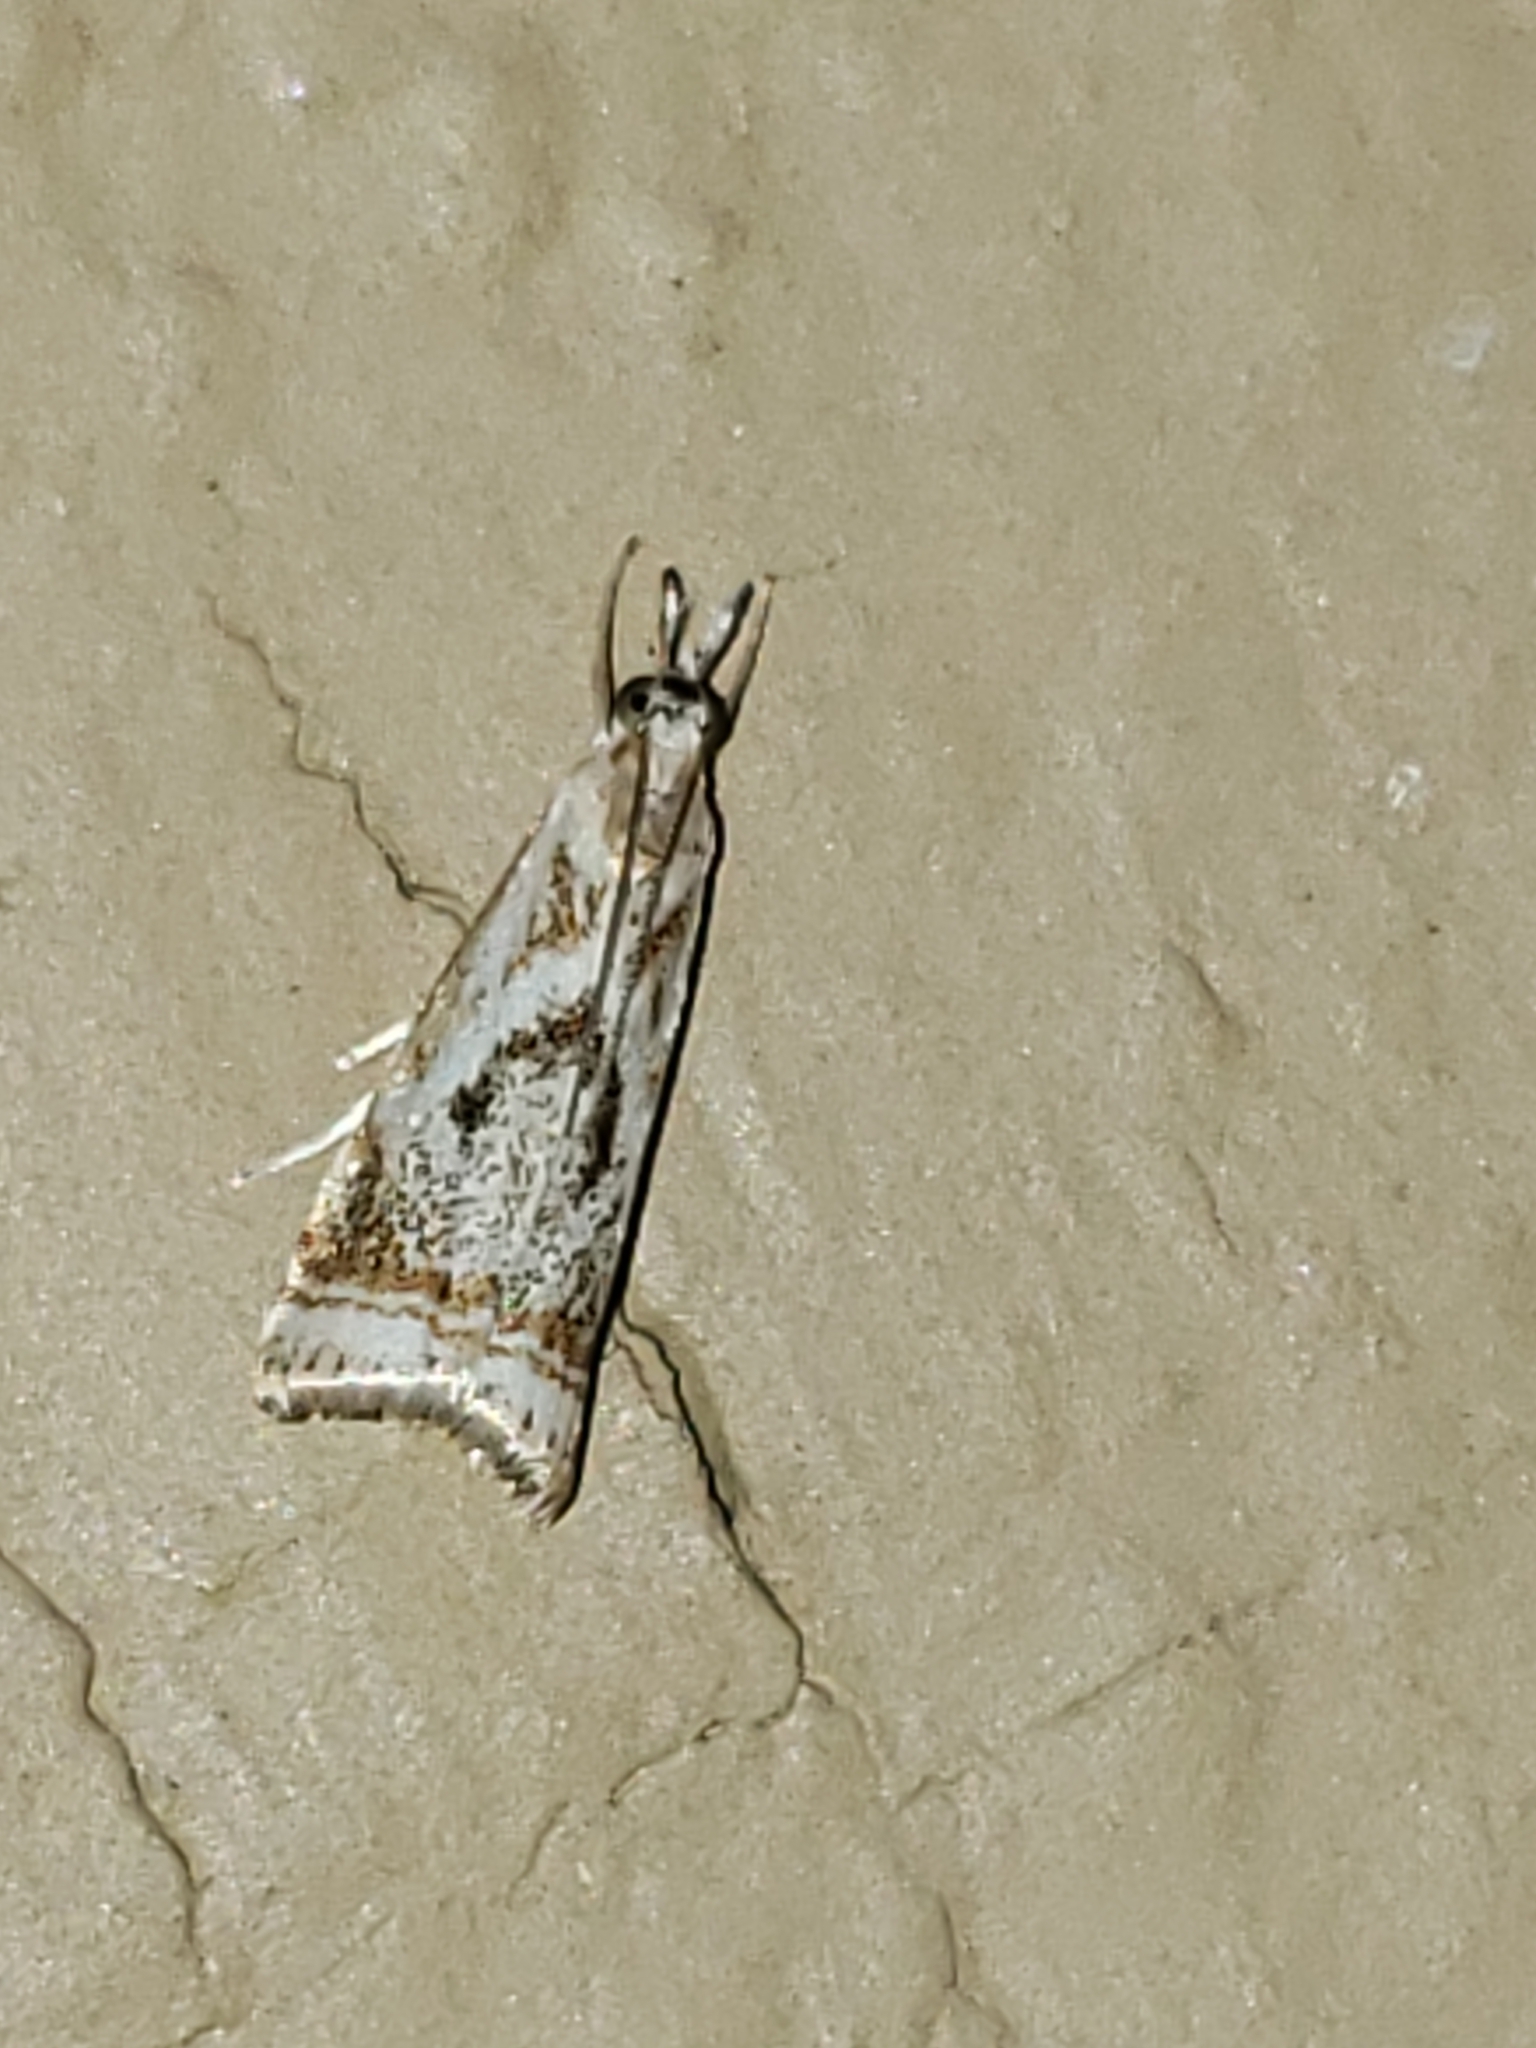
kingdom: Animalia
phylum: Arthropoda
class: Insecta
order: Lepidoptera
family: Crambidae
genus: Microcrambus
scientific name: Microcrambus elegans
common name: Elegant grass-veneer
